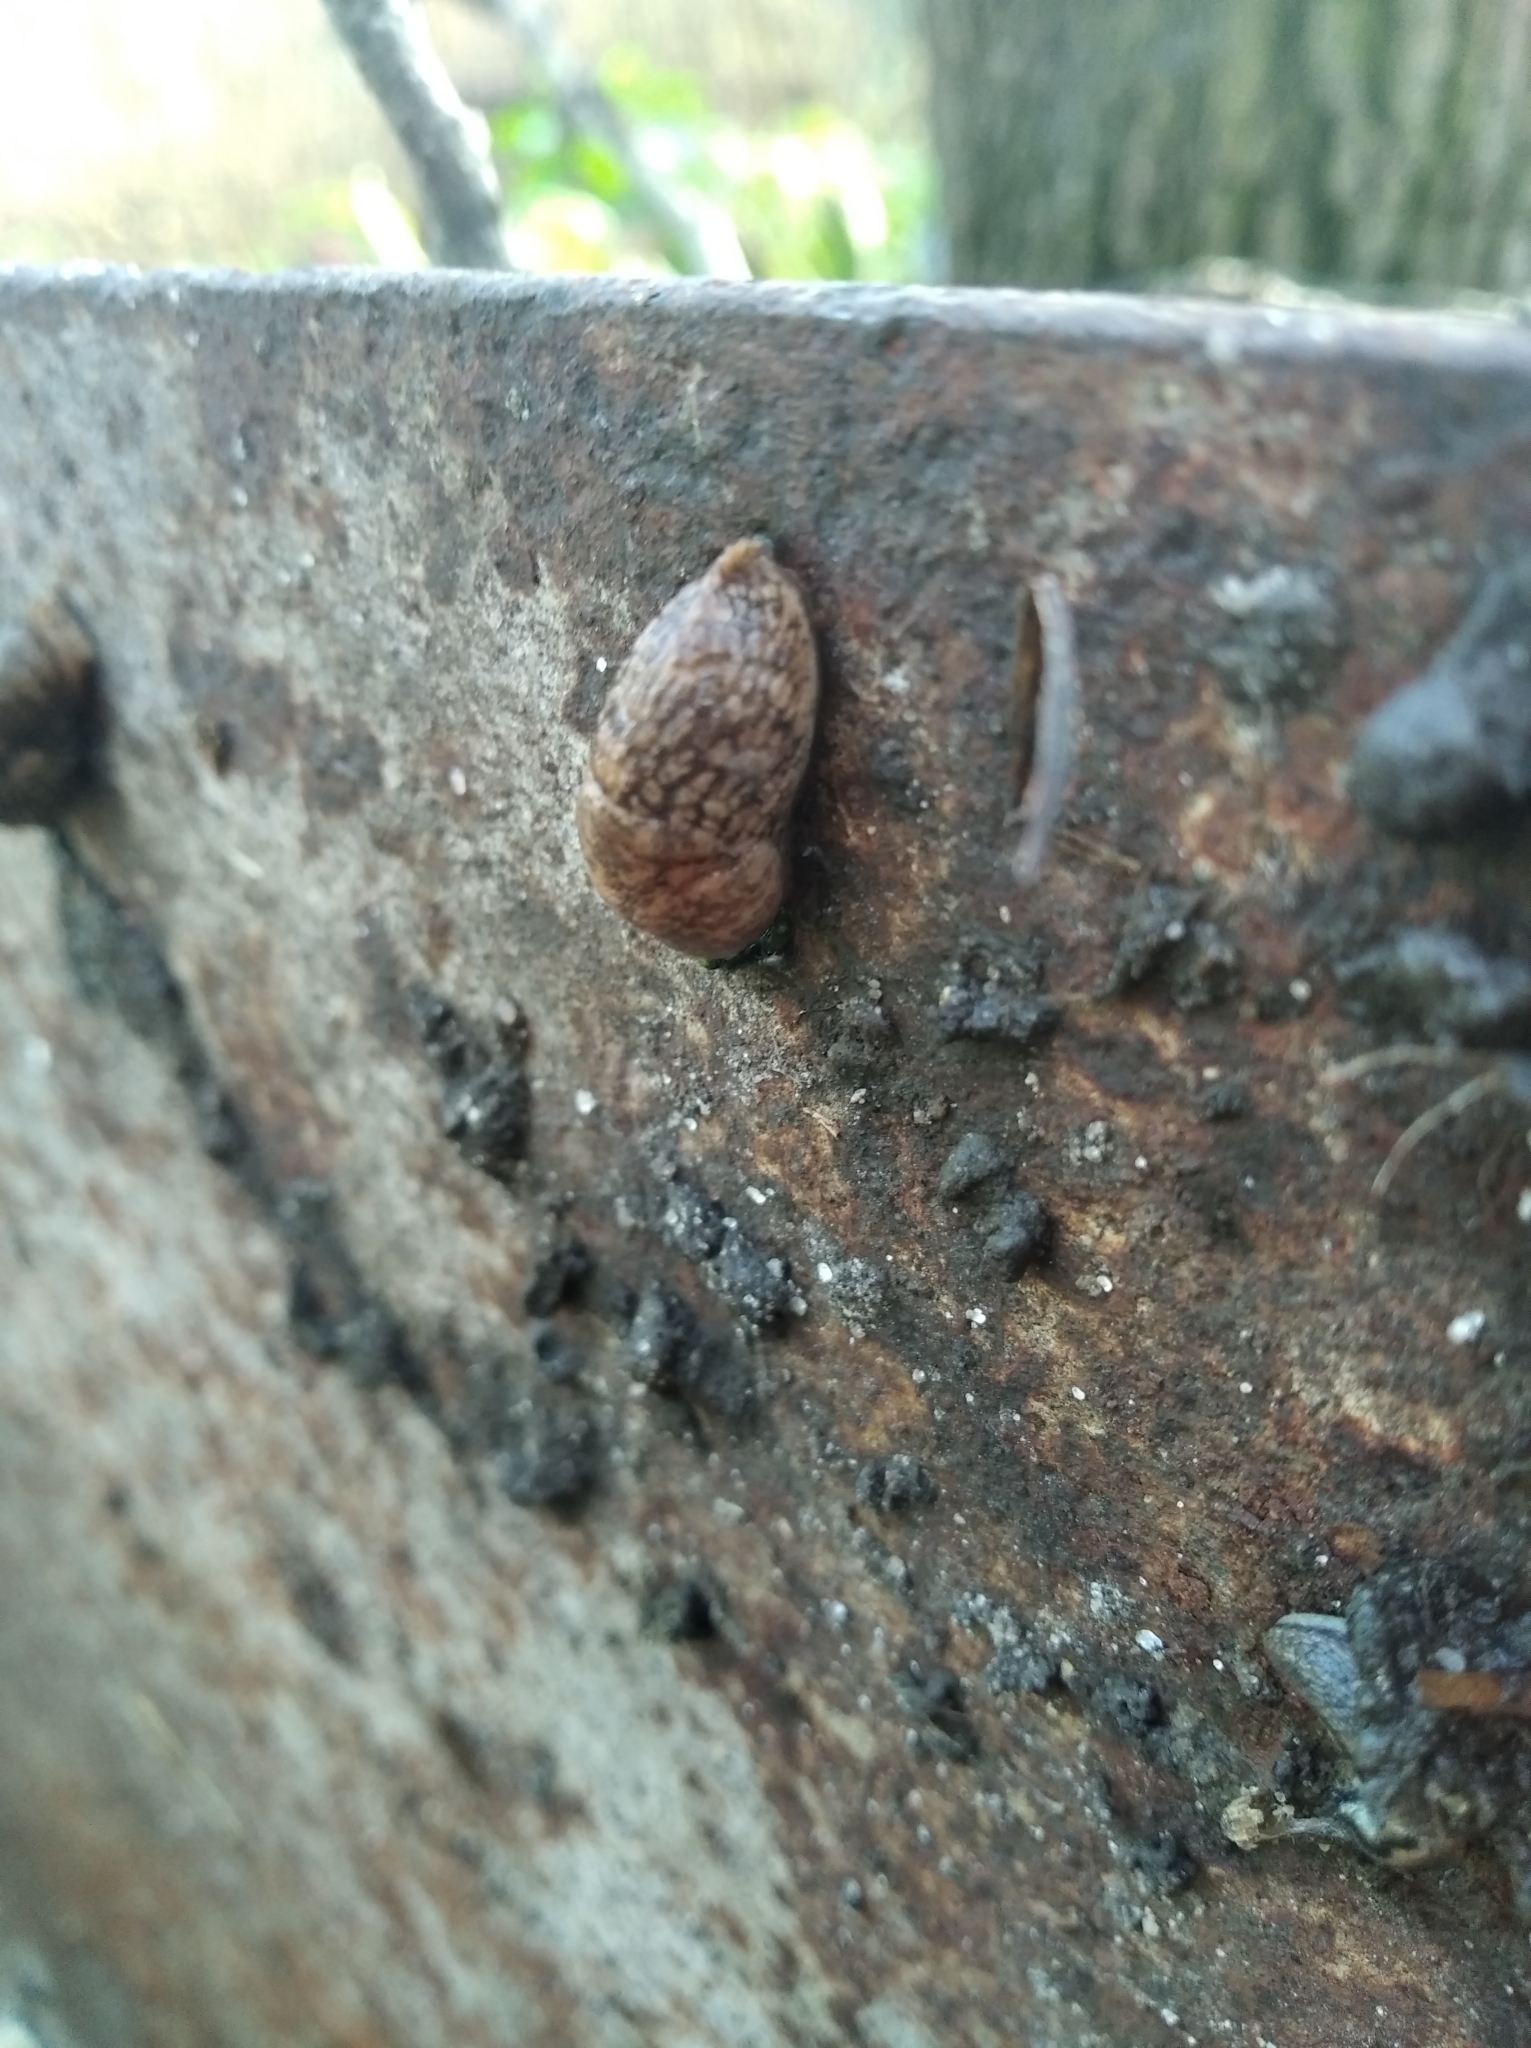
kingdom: Animalia
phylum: Mollusca
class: Gastropoda
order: Stylommatophora
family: Agriolimacidae
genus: Deroceras
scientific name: Deroceras reticulatum
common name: Gray field slug
